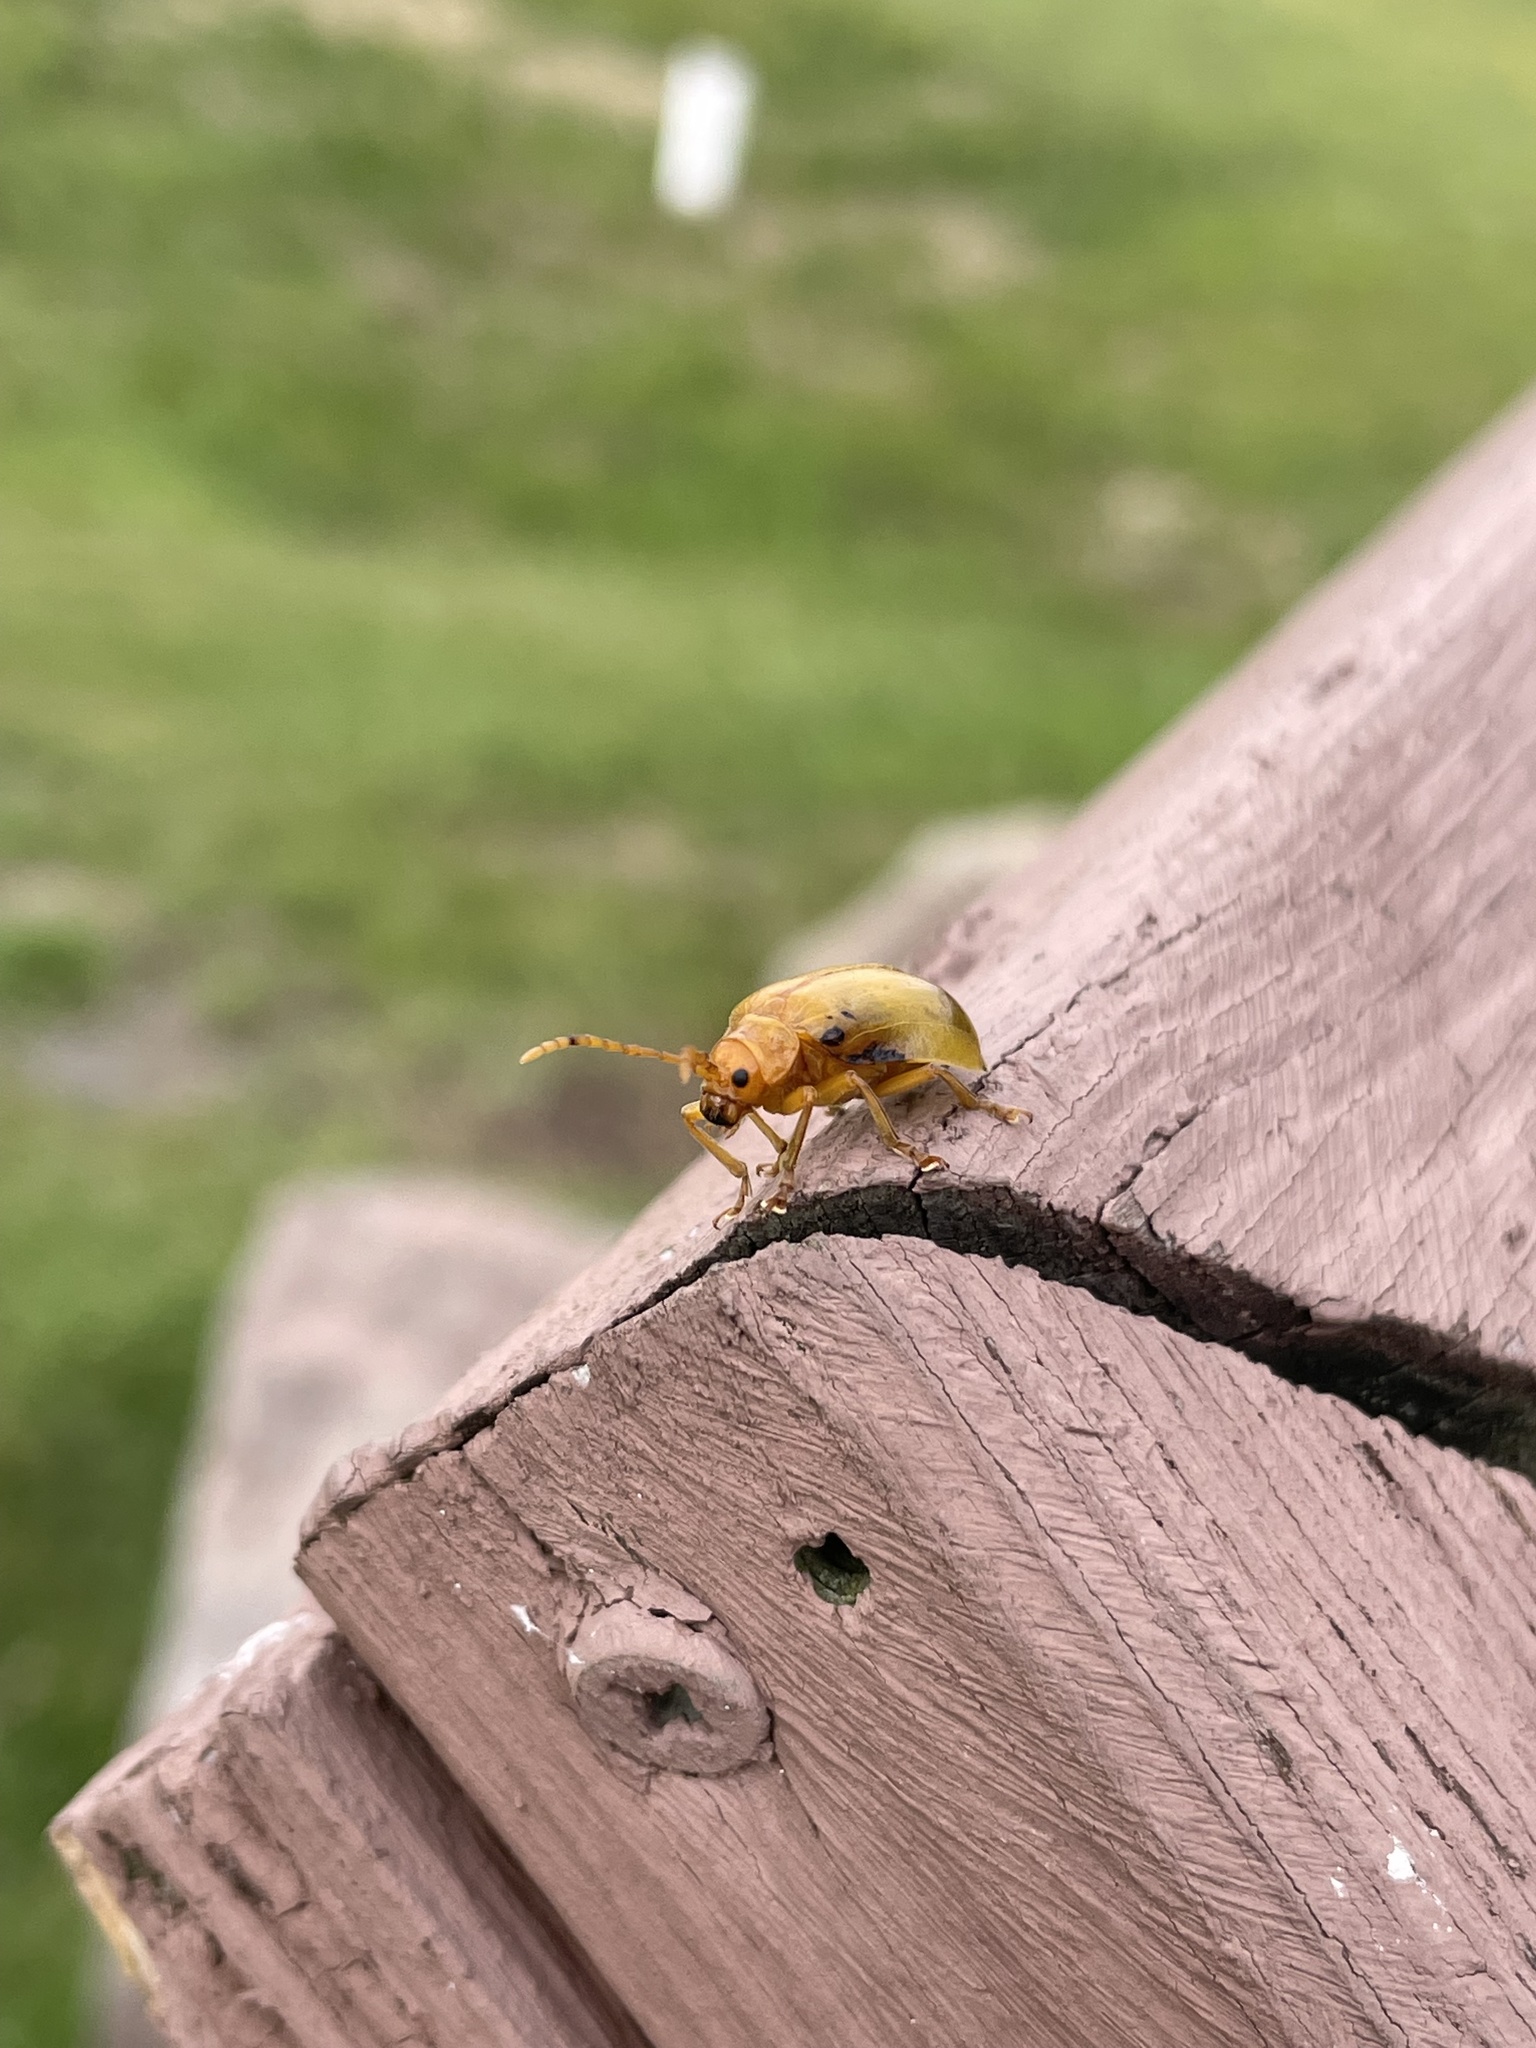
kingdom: Animalia
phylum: Arthropoda
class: Insecta
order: Coleoptera
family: Chrysomelidae
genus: Monocesta
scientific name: Monocesta coryli
